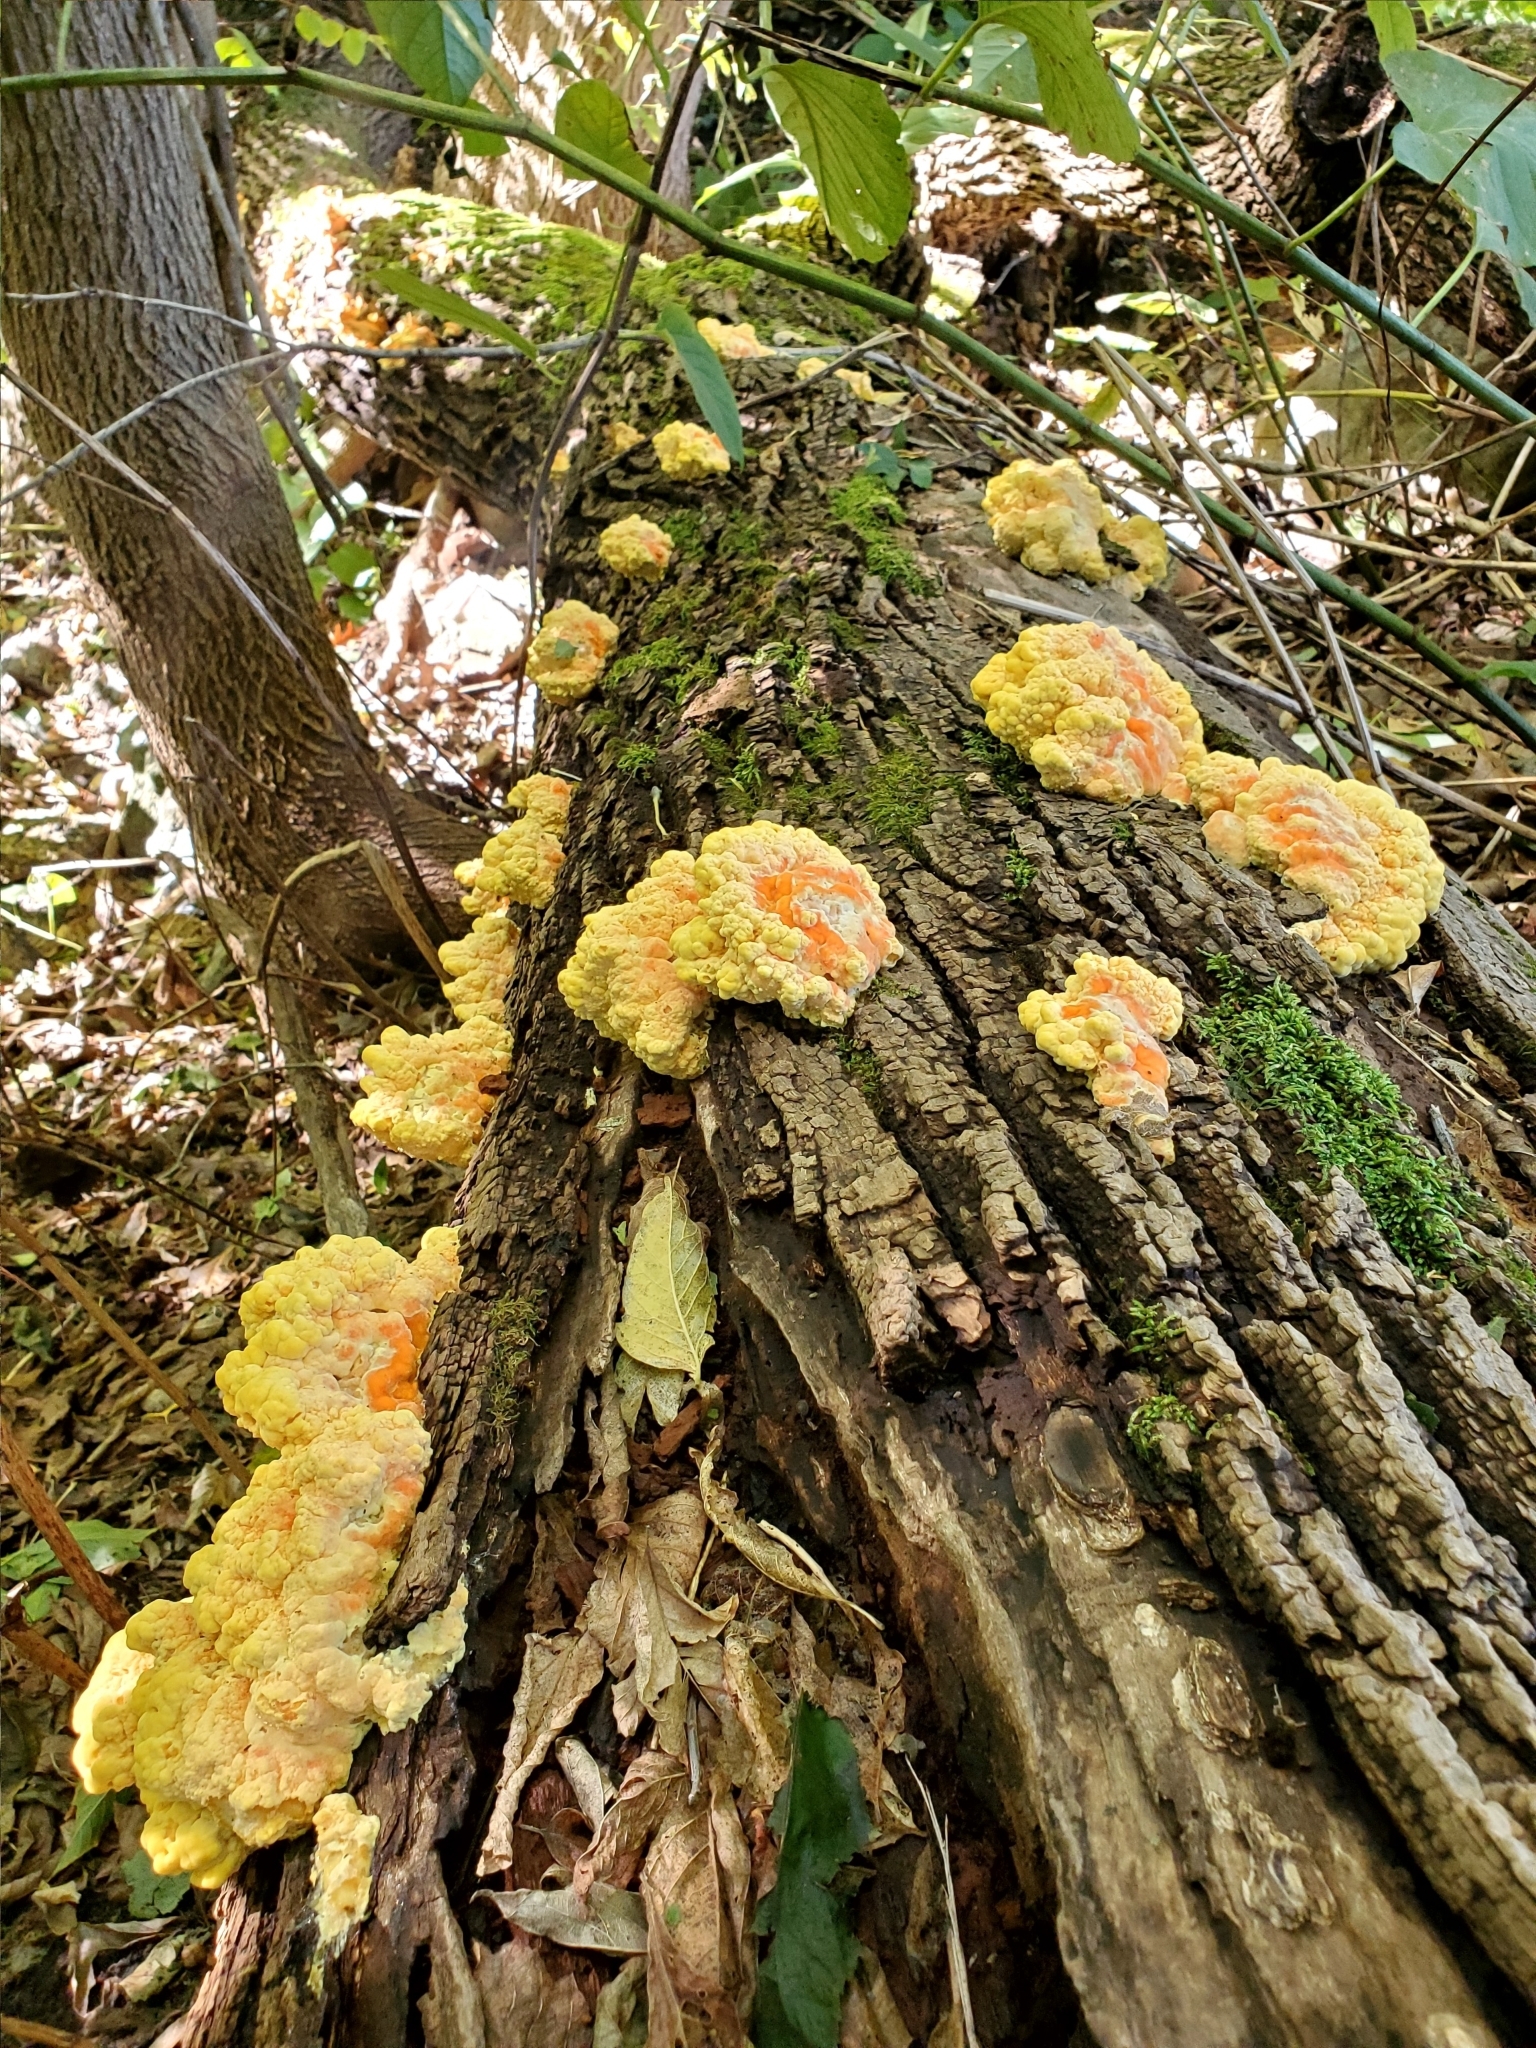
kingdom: Fungi
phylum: Basidiomycota
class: Agaricomycetes
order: Polyporales
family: Laetiporaceae
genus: Laetiporus
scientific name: Laetiporus sulphureus
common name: Chicken of the woods
